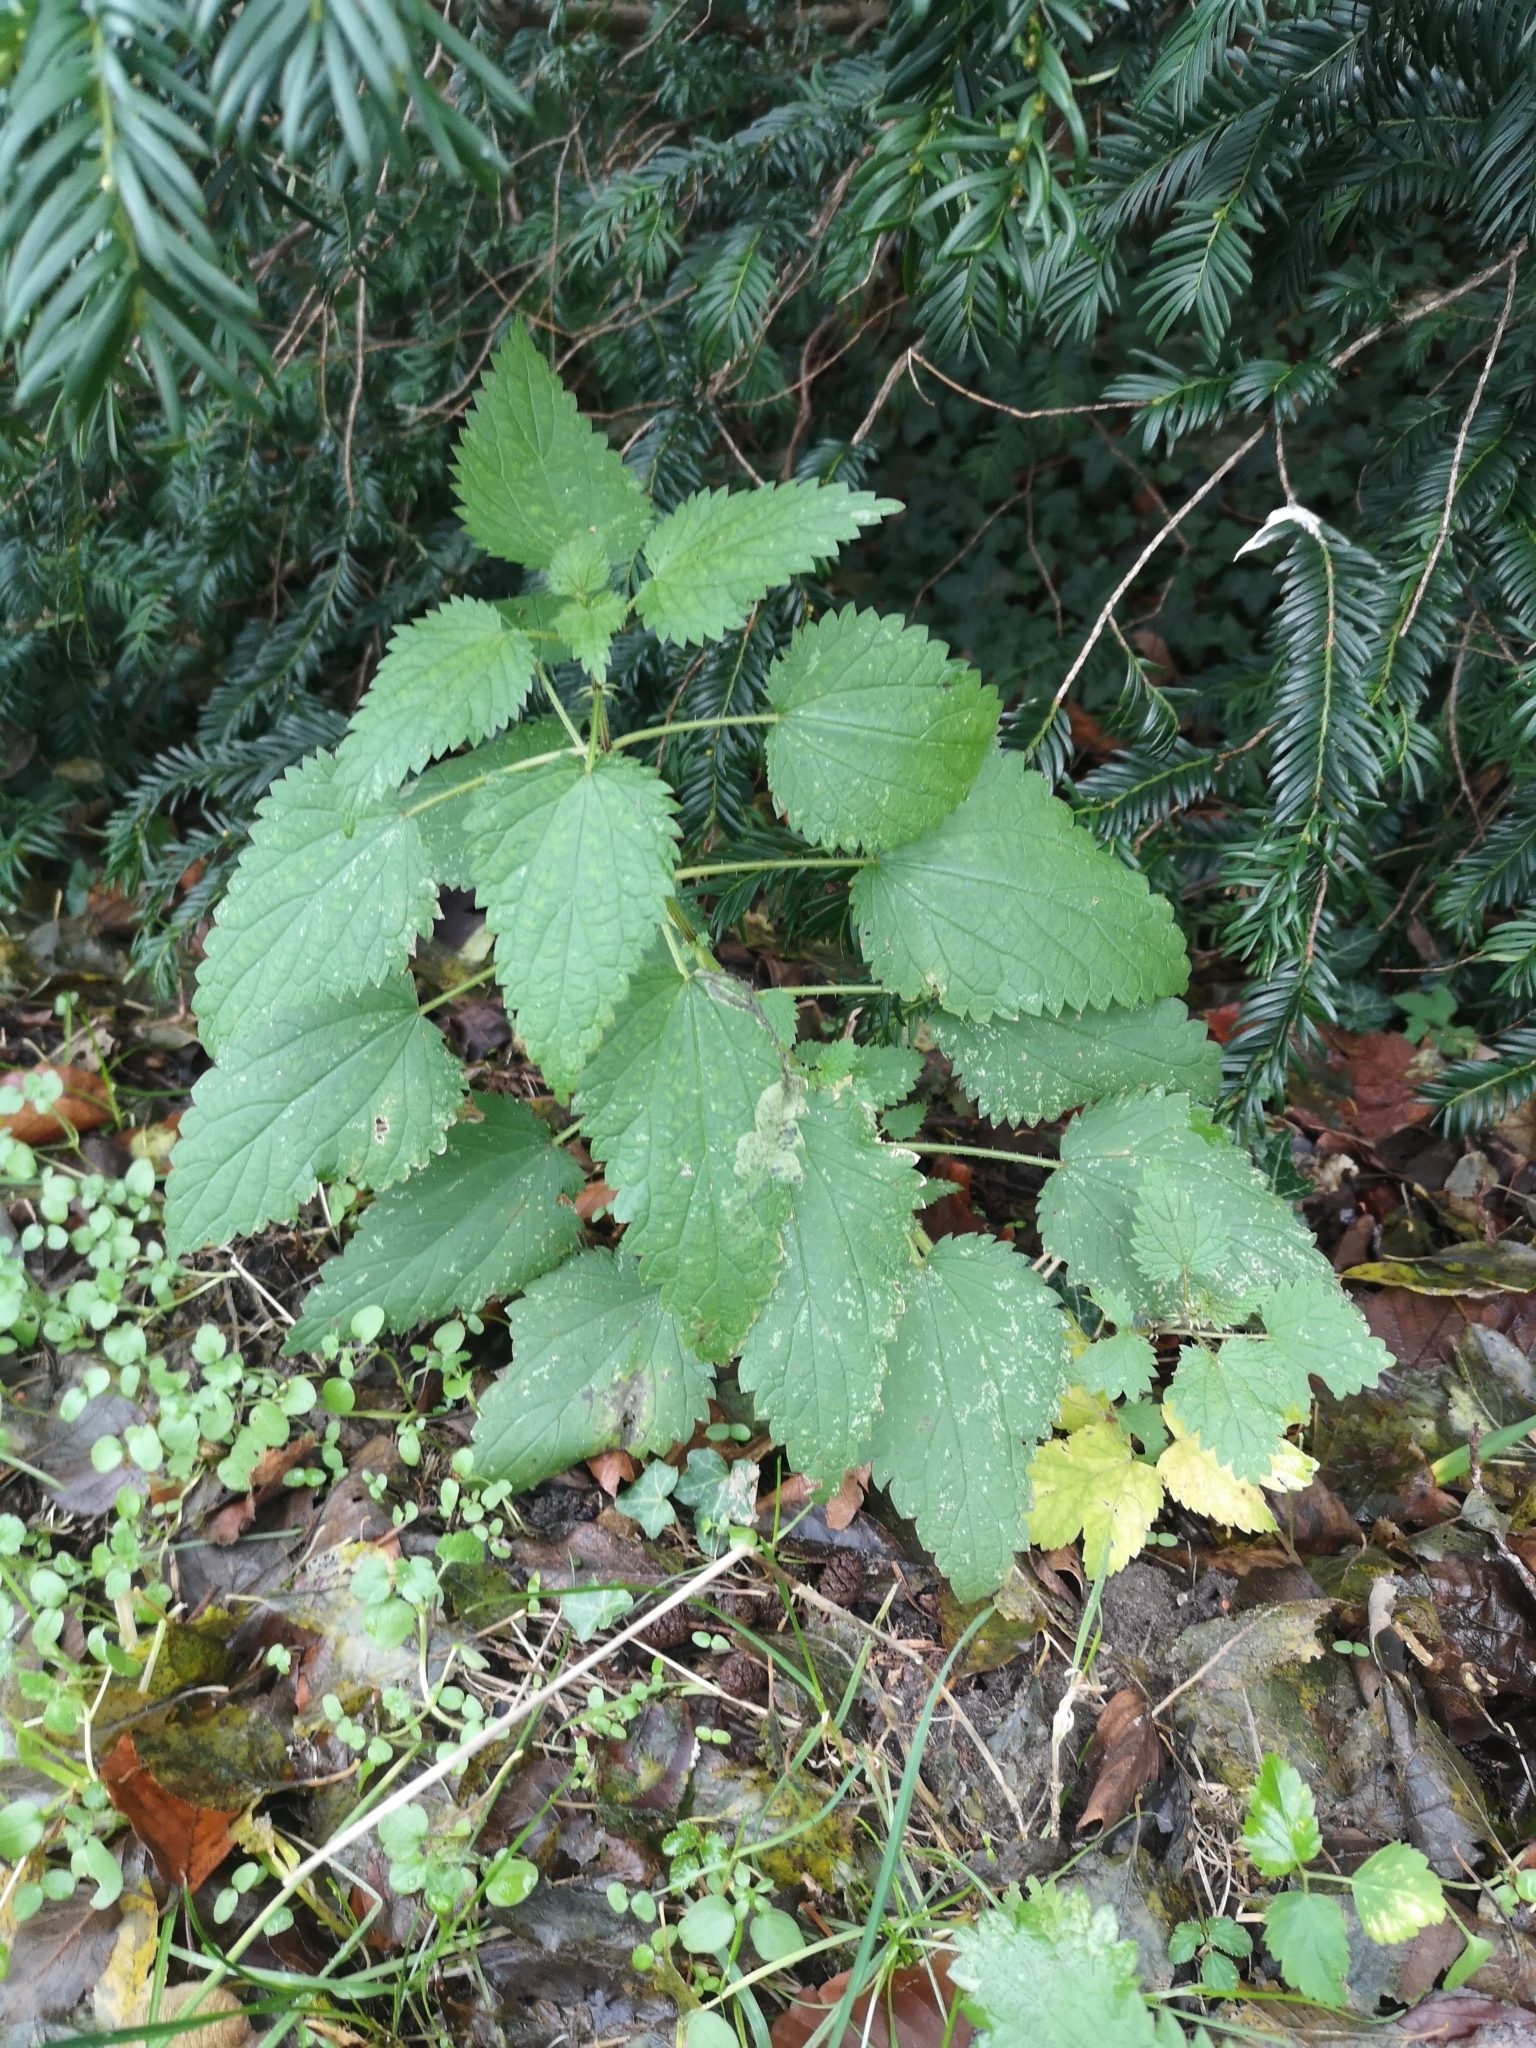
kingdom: Plantae
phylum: Tracheophyta
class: Magnoliopsida
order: Rosales
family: Urticaceae
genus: Urtica
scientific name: Urtica dioica
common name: Common nettle
